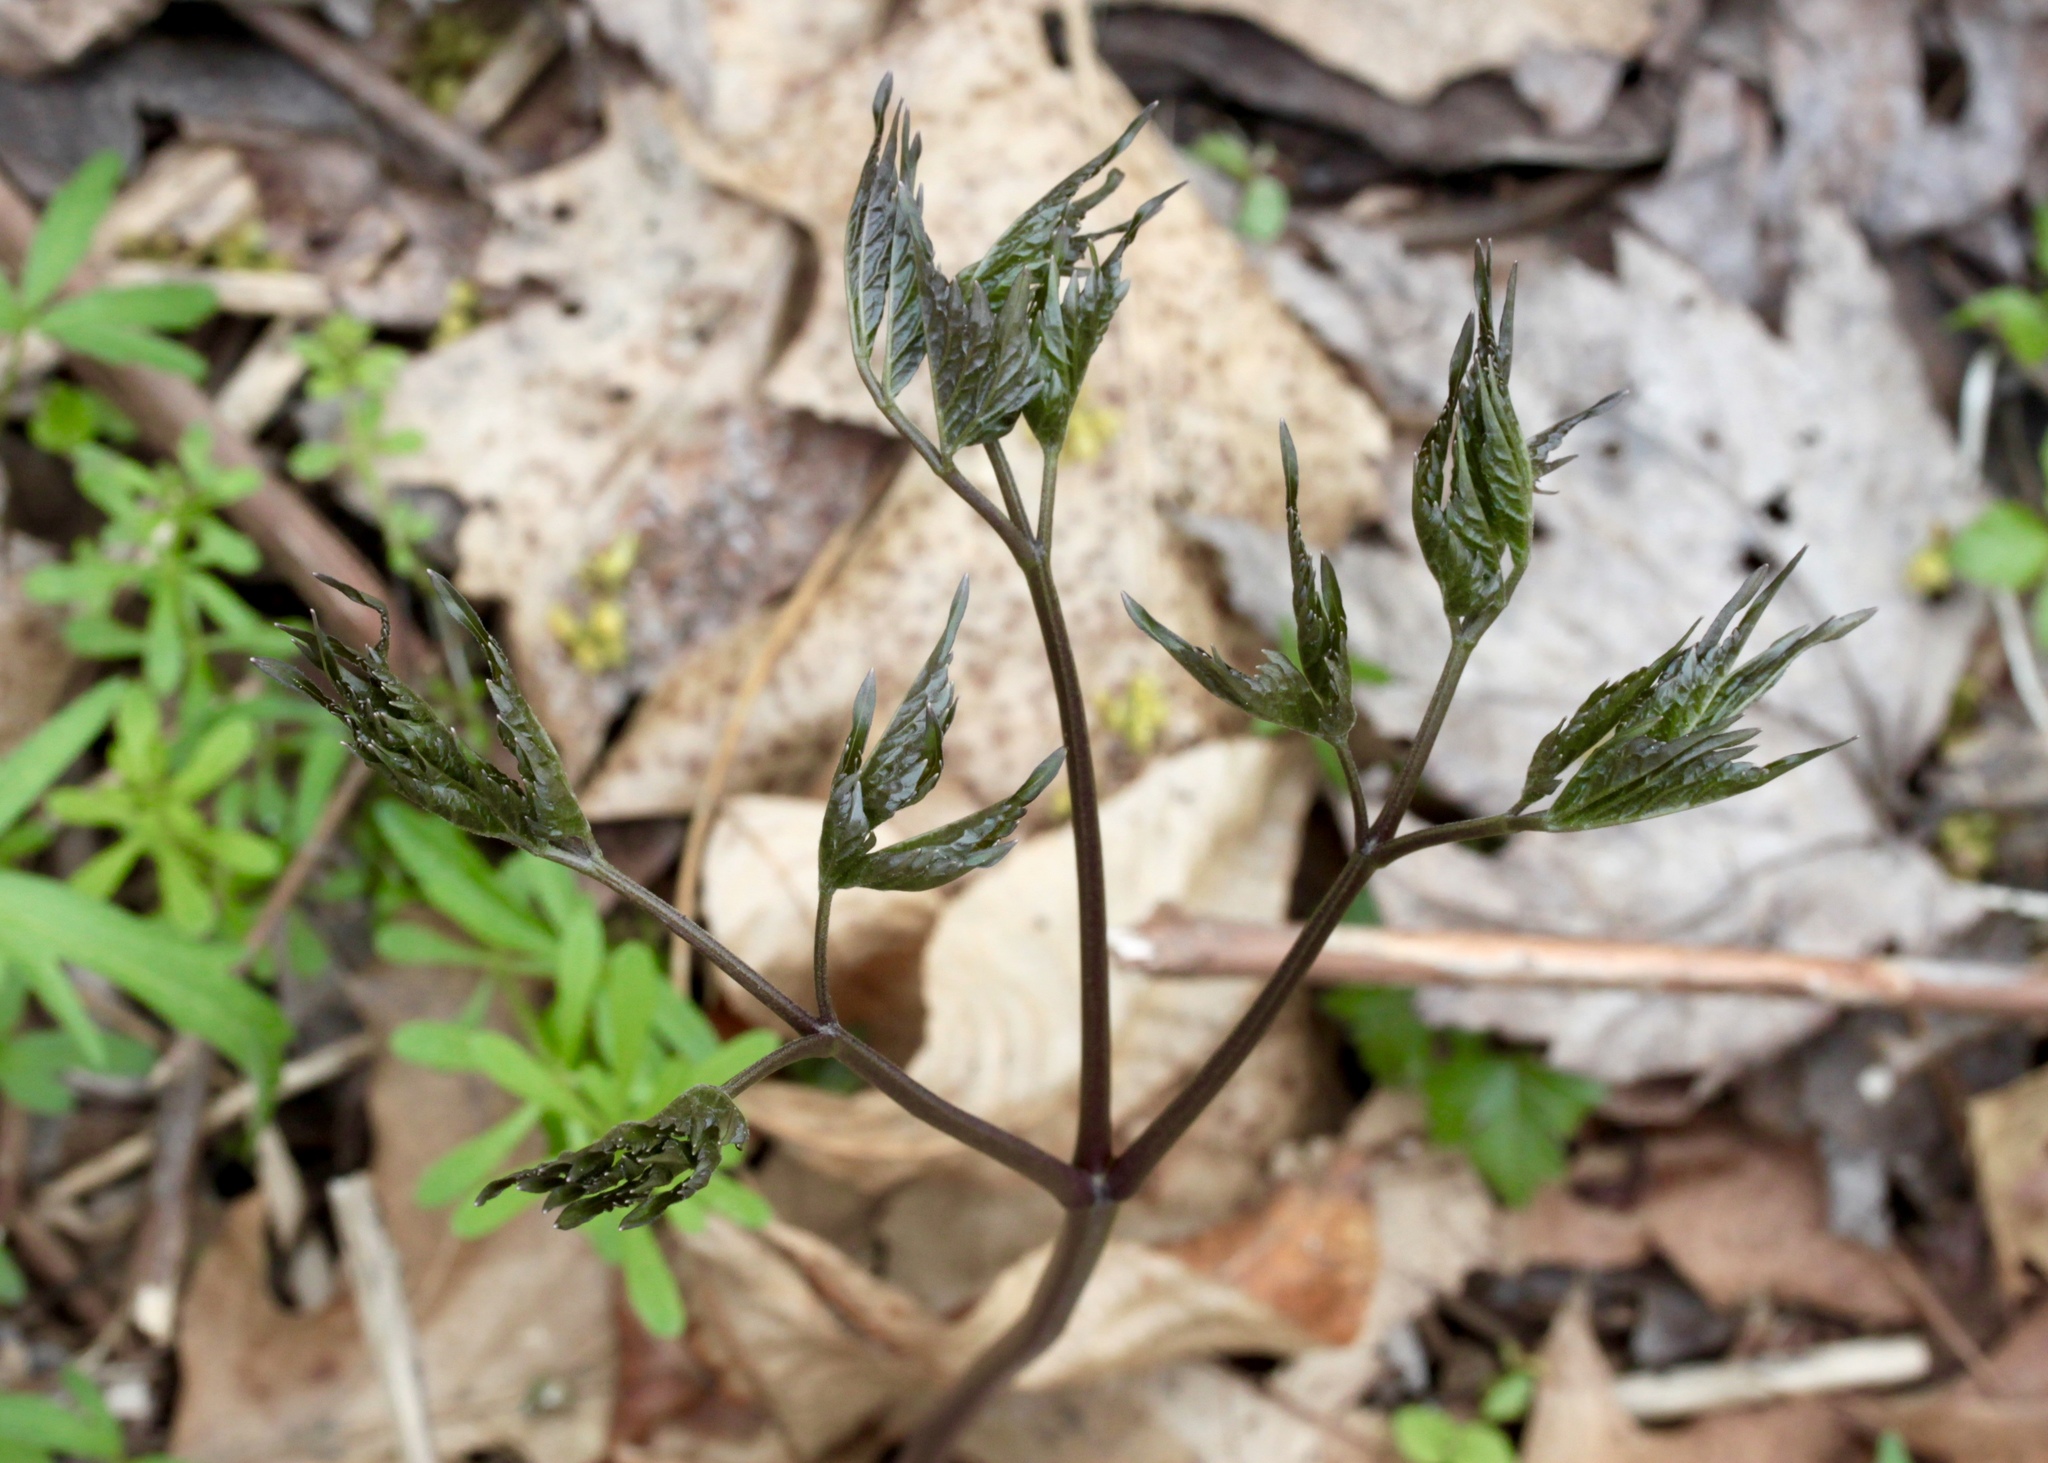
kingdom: Plantae
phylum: Tracheophyta
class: Magnoliopsida
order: Ranunculales
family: Berberidaceae
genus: Caulophyllum
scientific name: Caulophyllum thalictroides
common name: Blue cohosh
